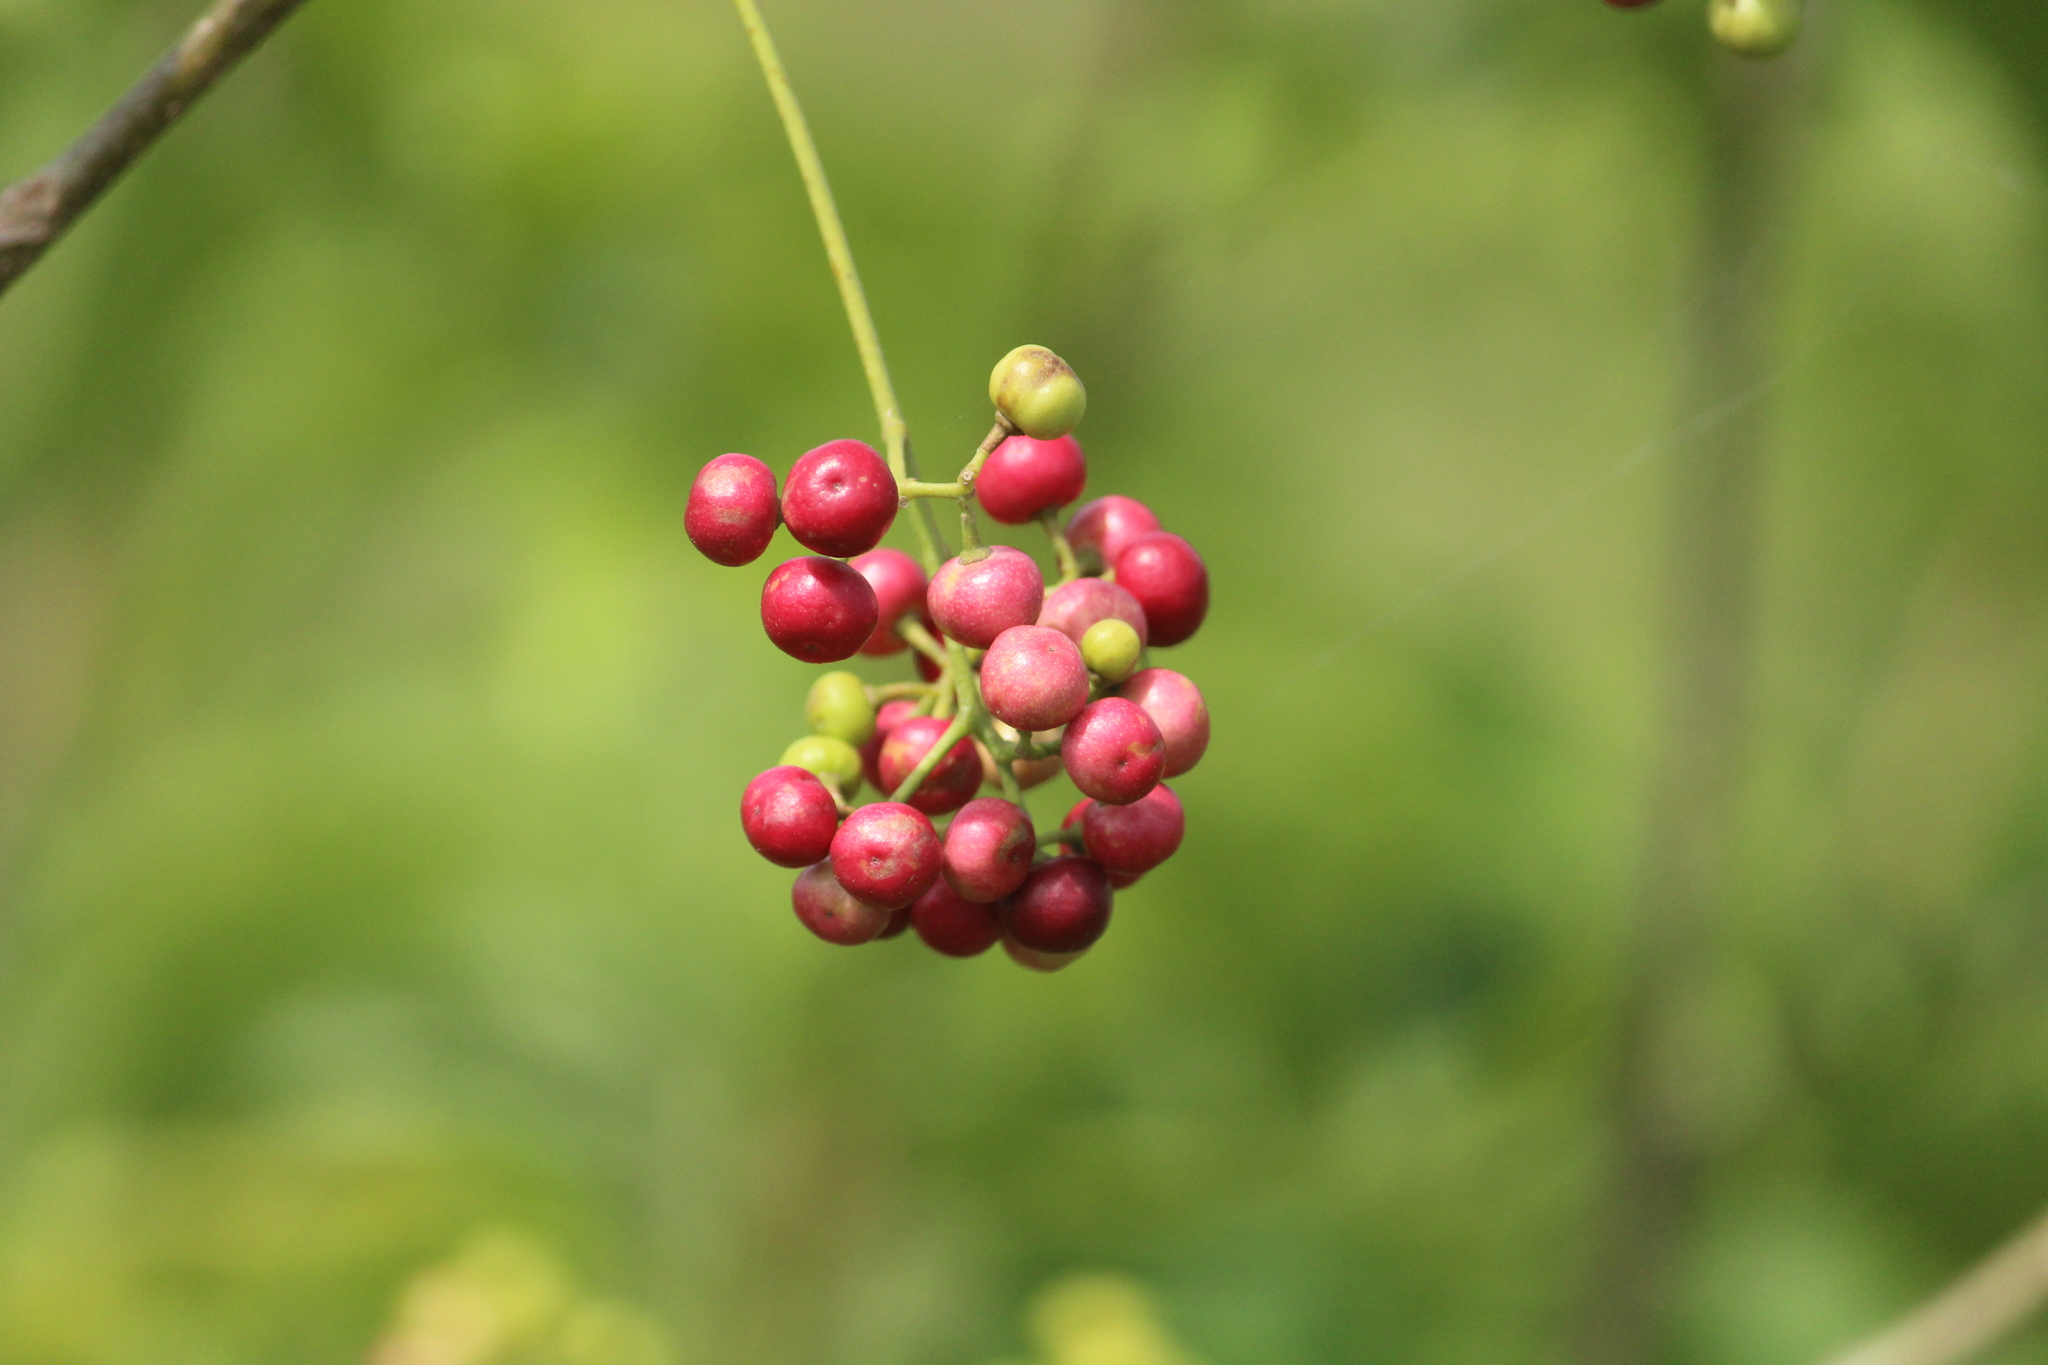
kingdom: Plantae
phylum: Tracheophyta
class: Magnoliopsida
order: Sapindales
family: Meliaceae
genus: Cipadessa
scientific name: Cipadessa baccifera
